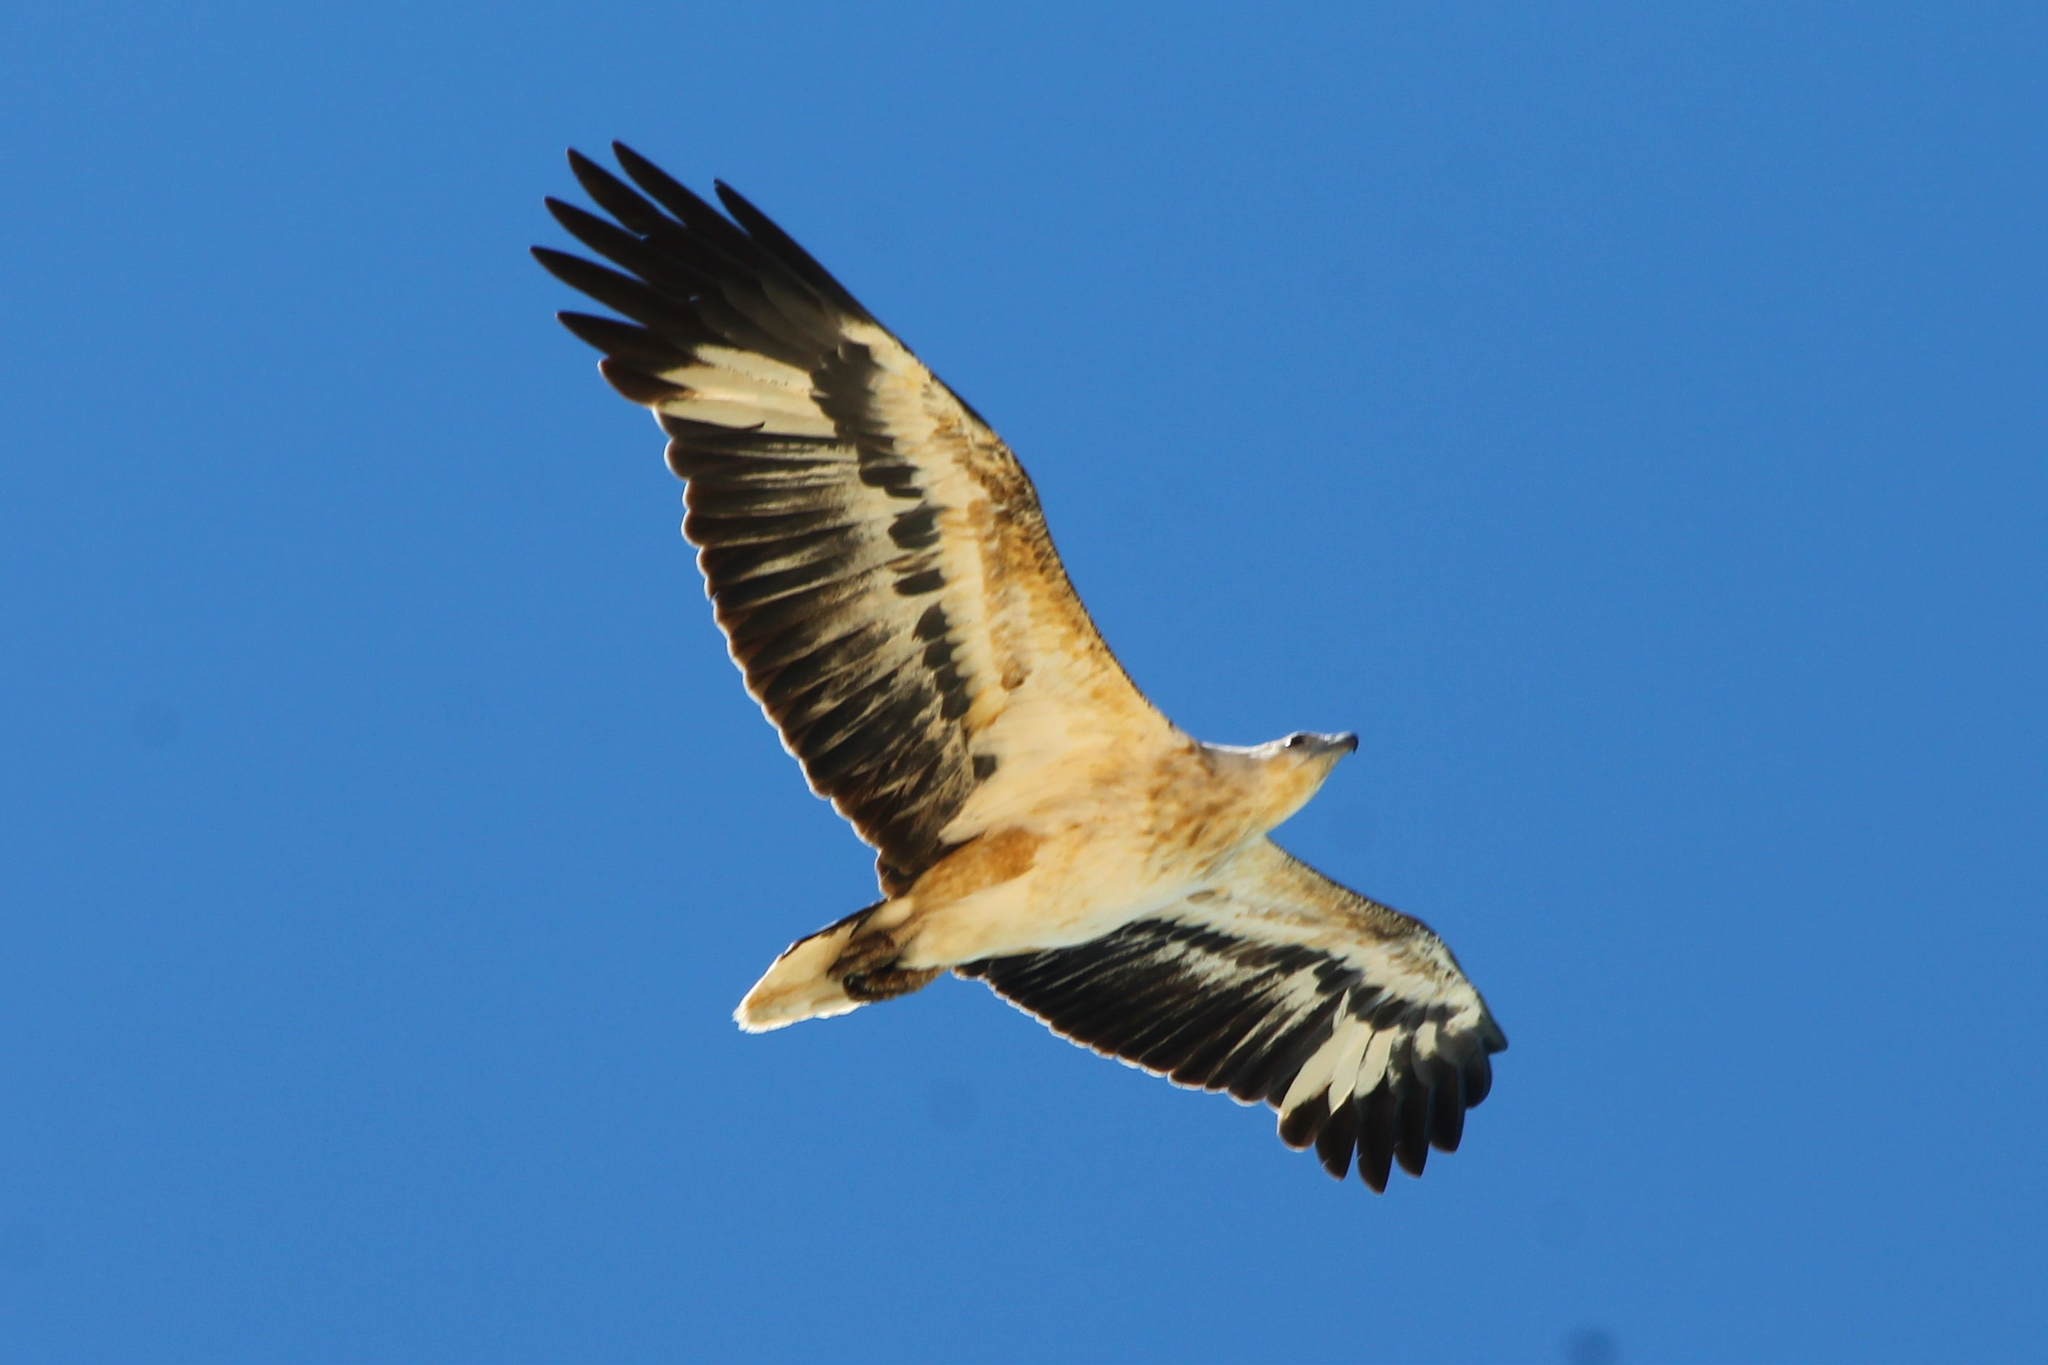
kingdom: Animalia
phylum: Chordata
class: Aves
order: Accipitriformes
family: Accipitridae
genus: Haliaeetus
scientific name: Haliaeetus leucogaster
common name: White-bellied sea eagle
